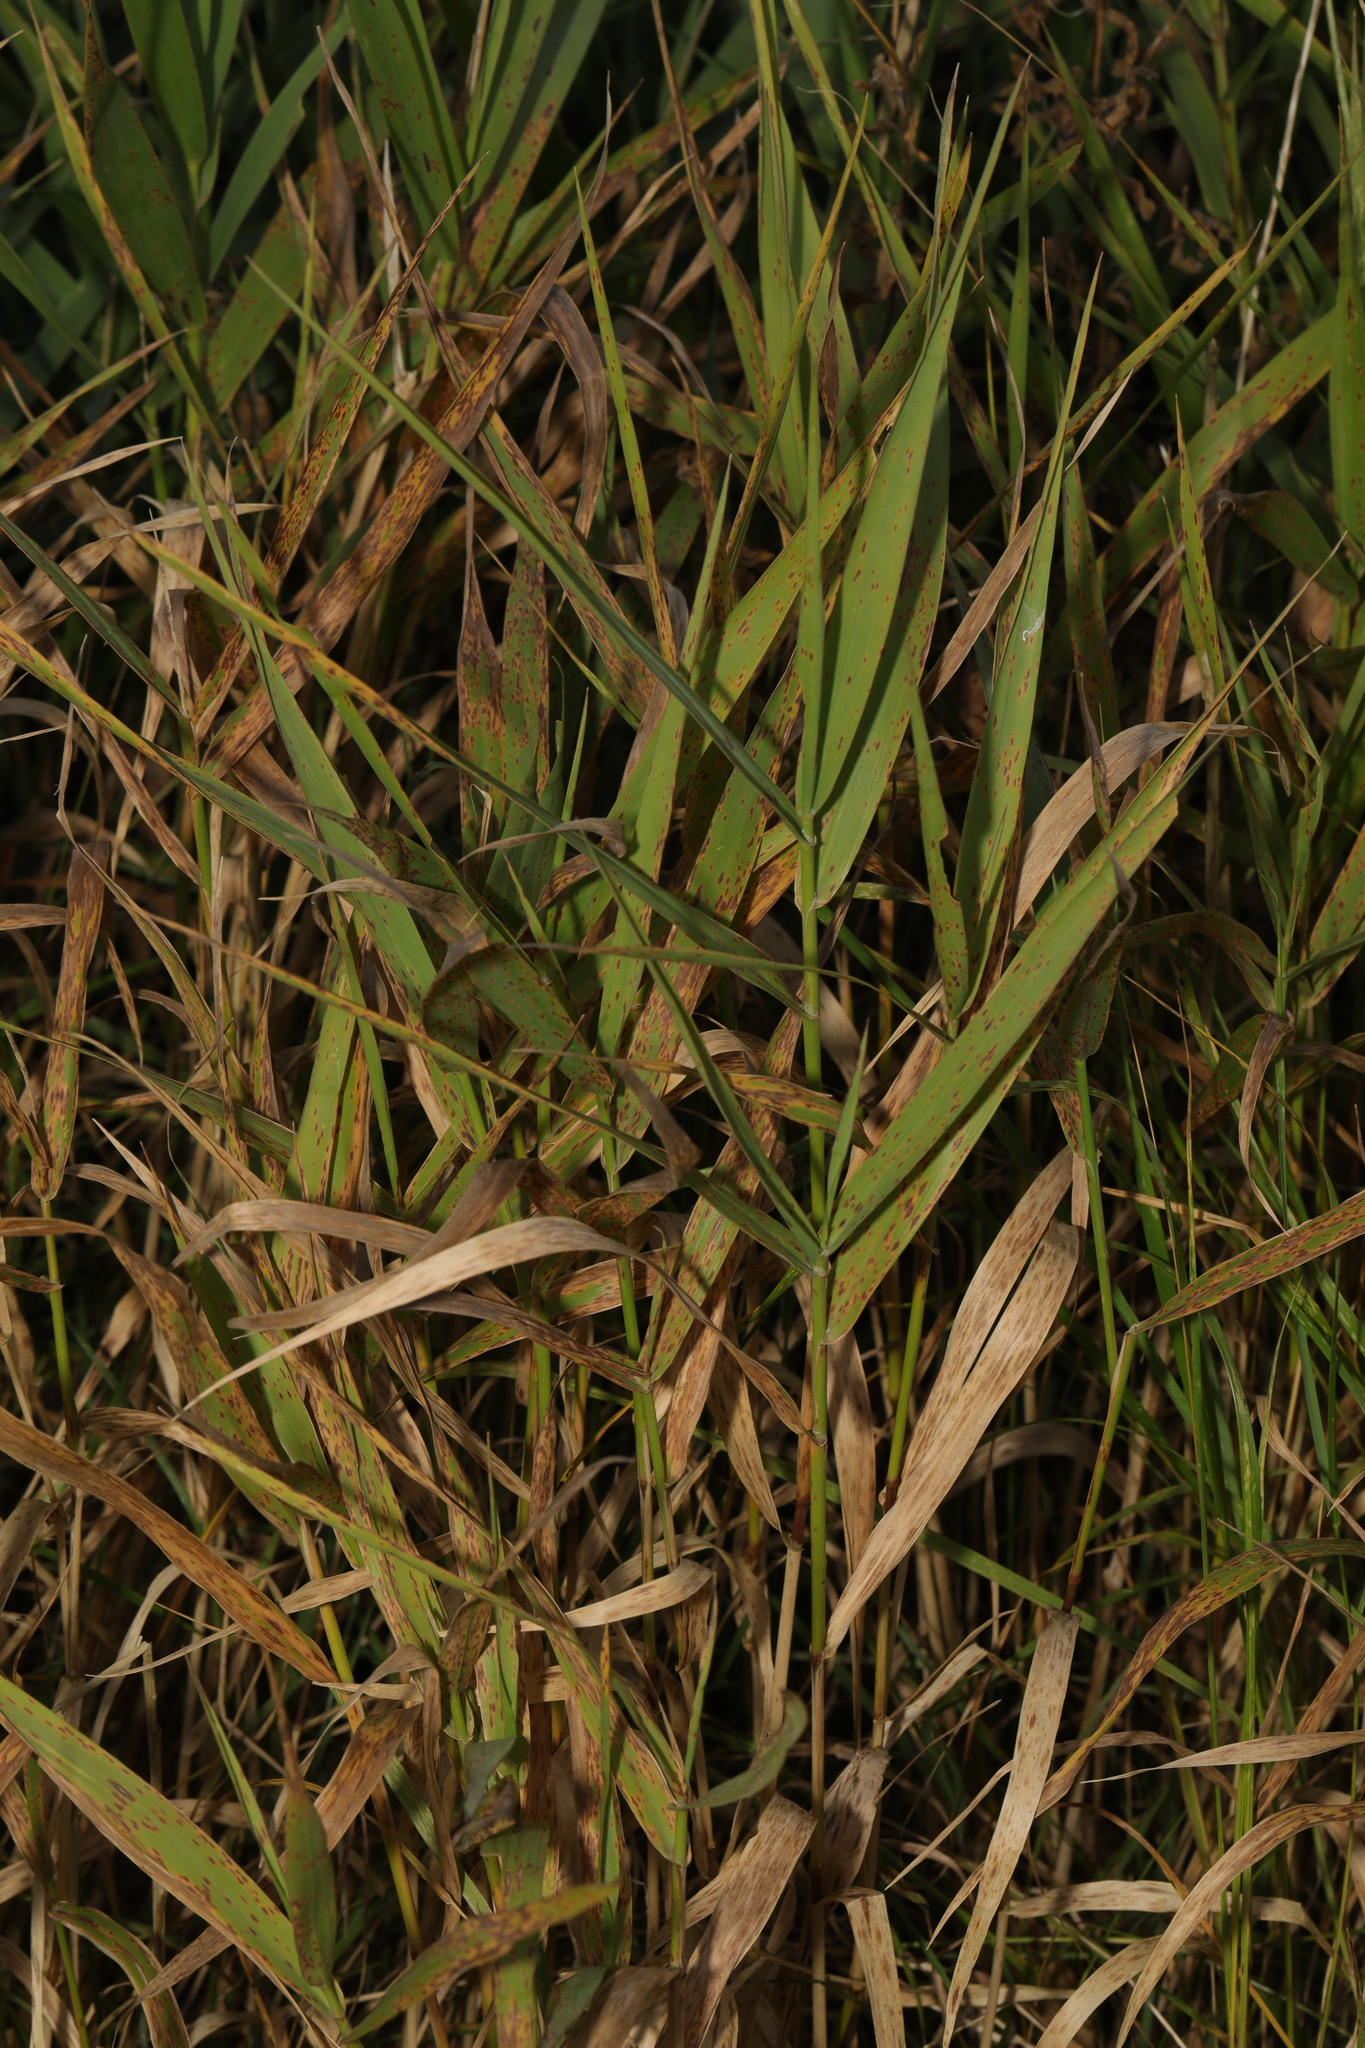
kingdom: Plantae
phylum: Tracheophyta
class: Liliopsida
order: Poales
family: Poaceae
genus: Phalaris
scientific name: Phalaris arundinacea
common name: Reed canary-grass
